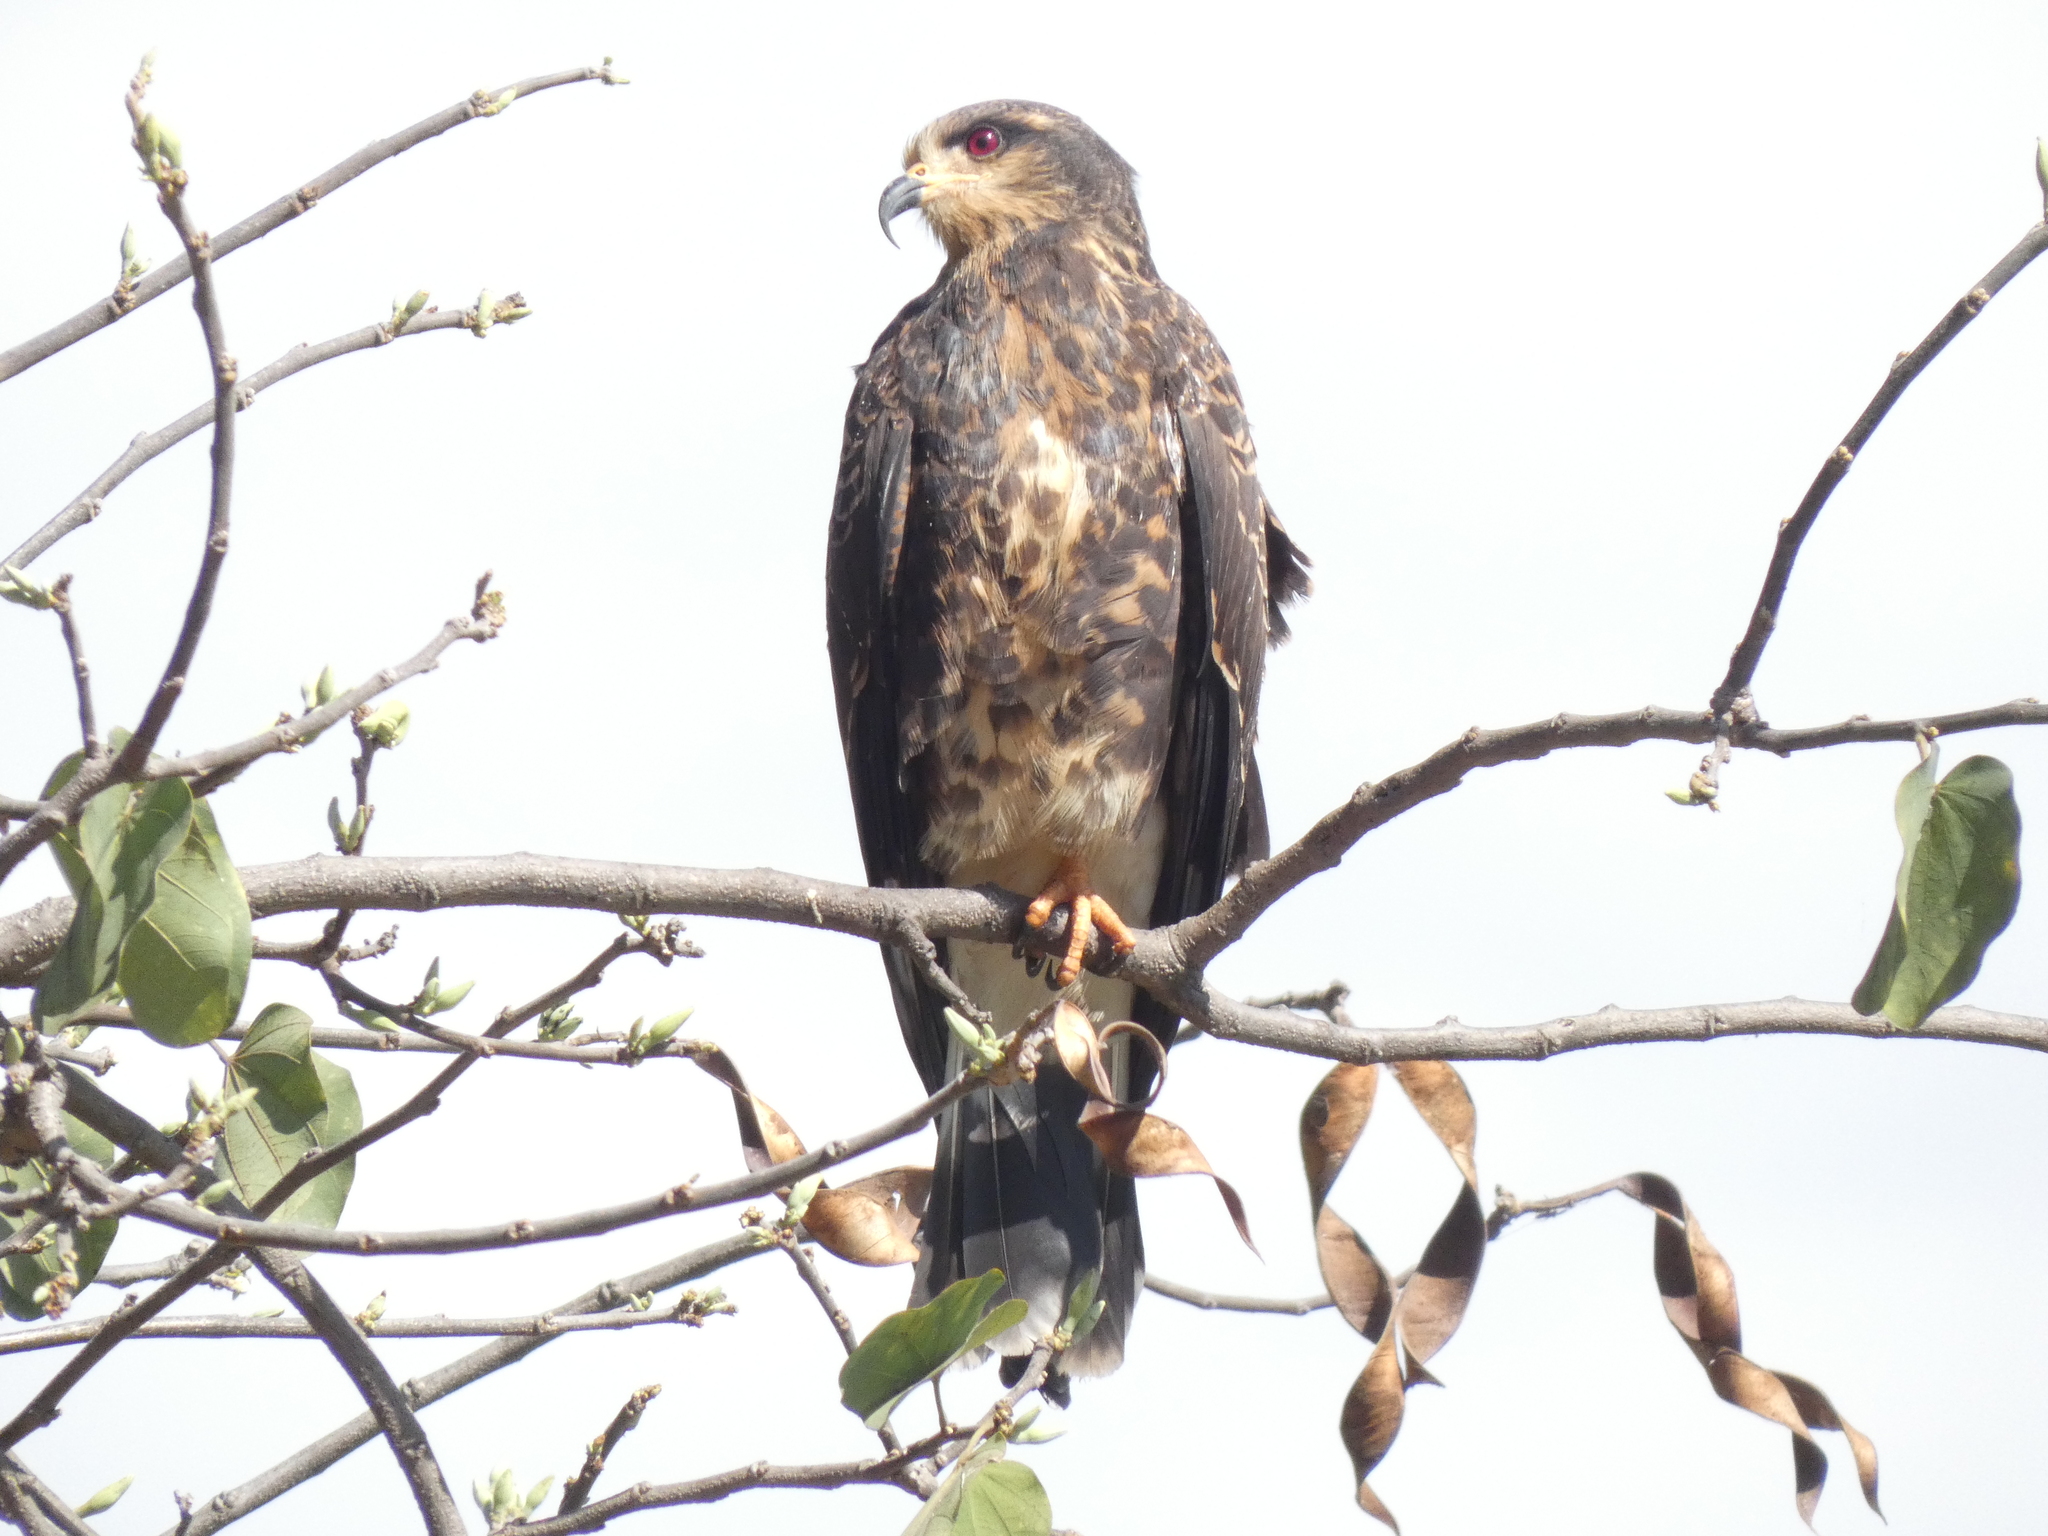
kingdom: Animalia
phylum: Chordata
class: Aves
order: Accipitriformes
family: Accipitridae
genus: Rostrhamus
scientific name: Rostrhamus sociabilis
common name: Snail kite
